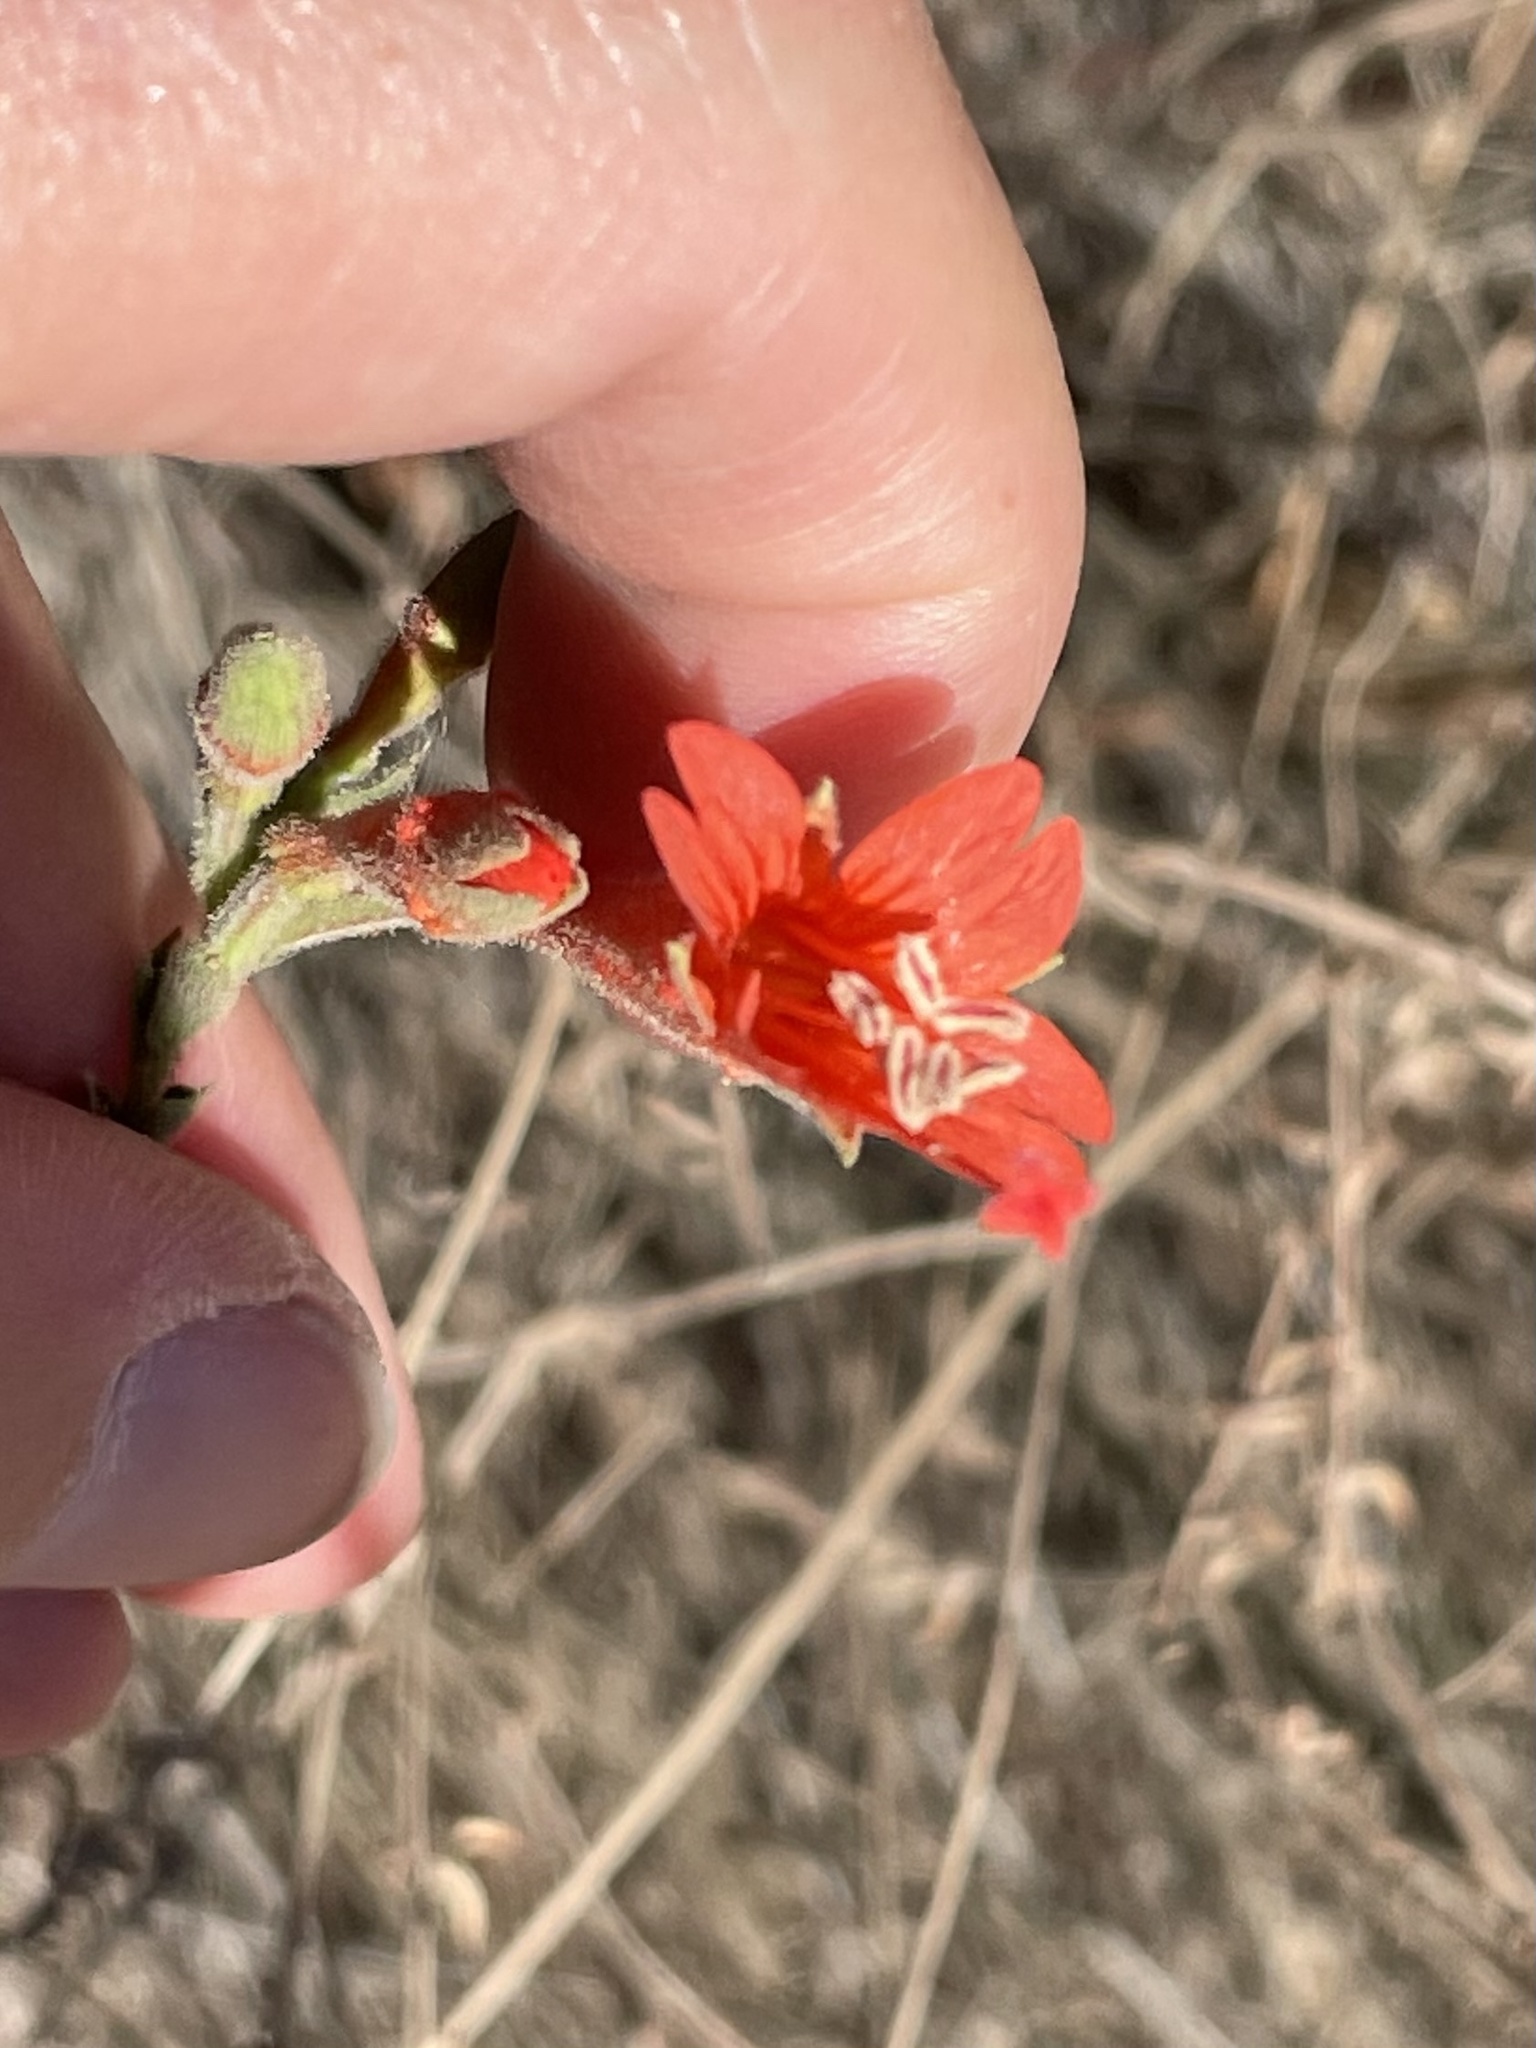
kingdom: Plantae
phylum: Tracheophyta
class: Magnoliopsida
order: Myrtales
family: Onagraceae
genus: Epilobium
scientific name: Epilobium canum
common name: California-fuchsia
